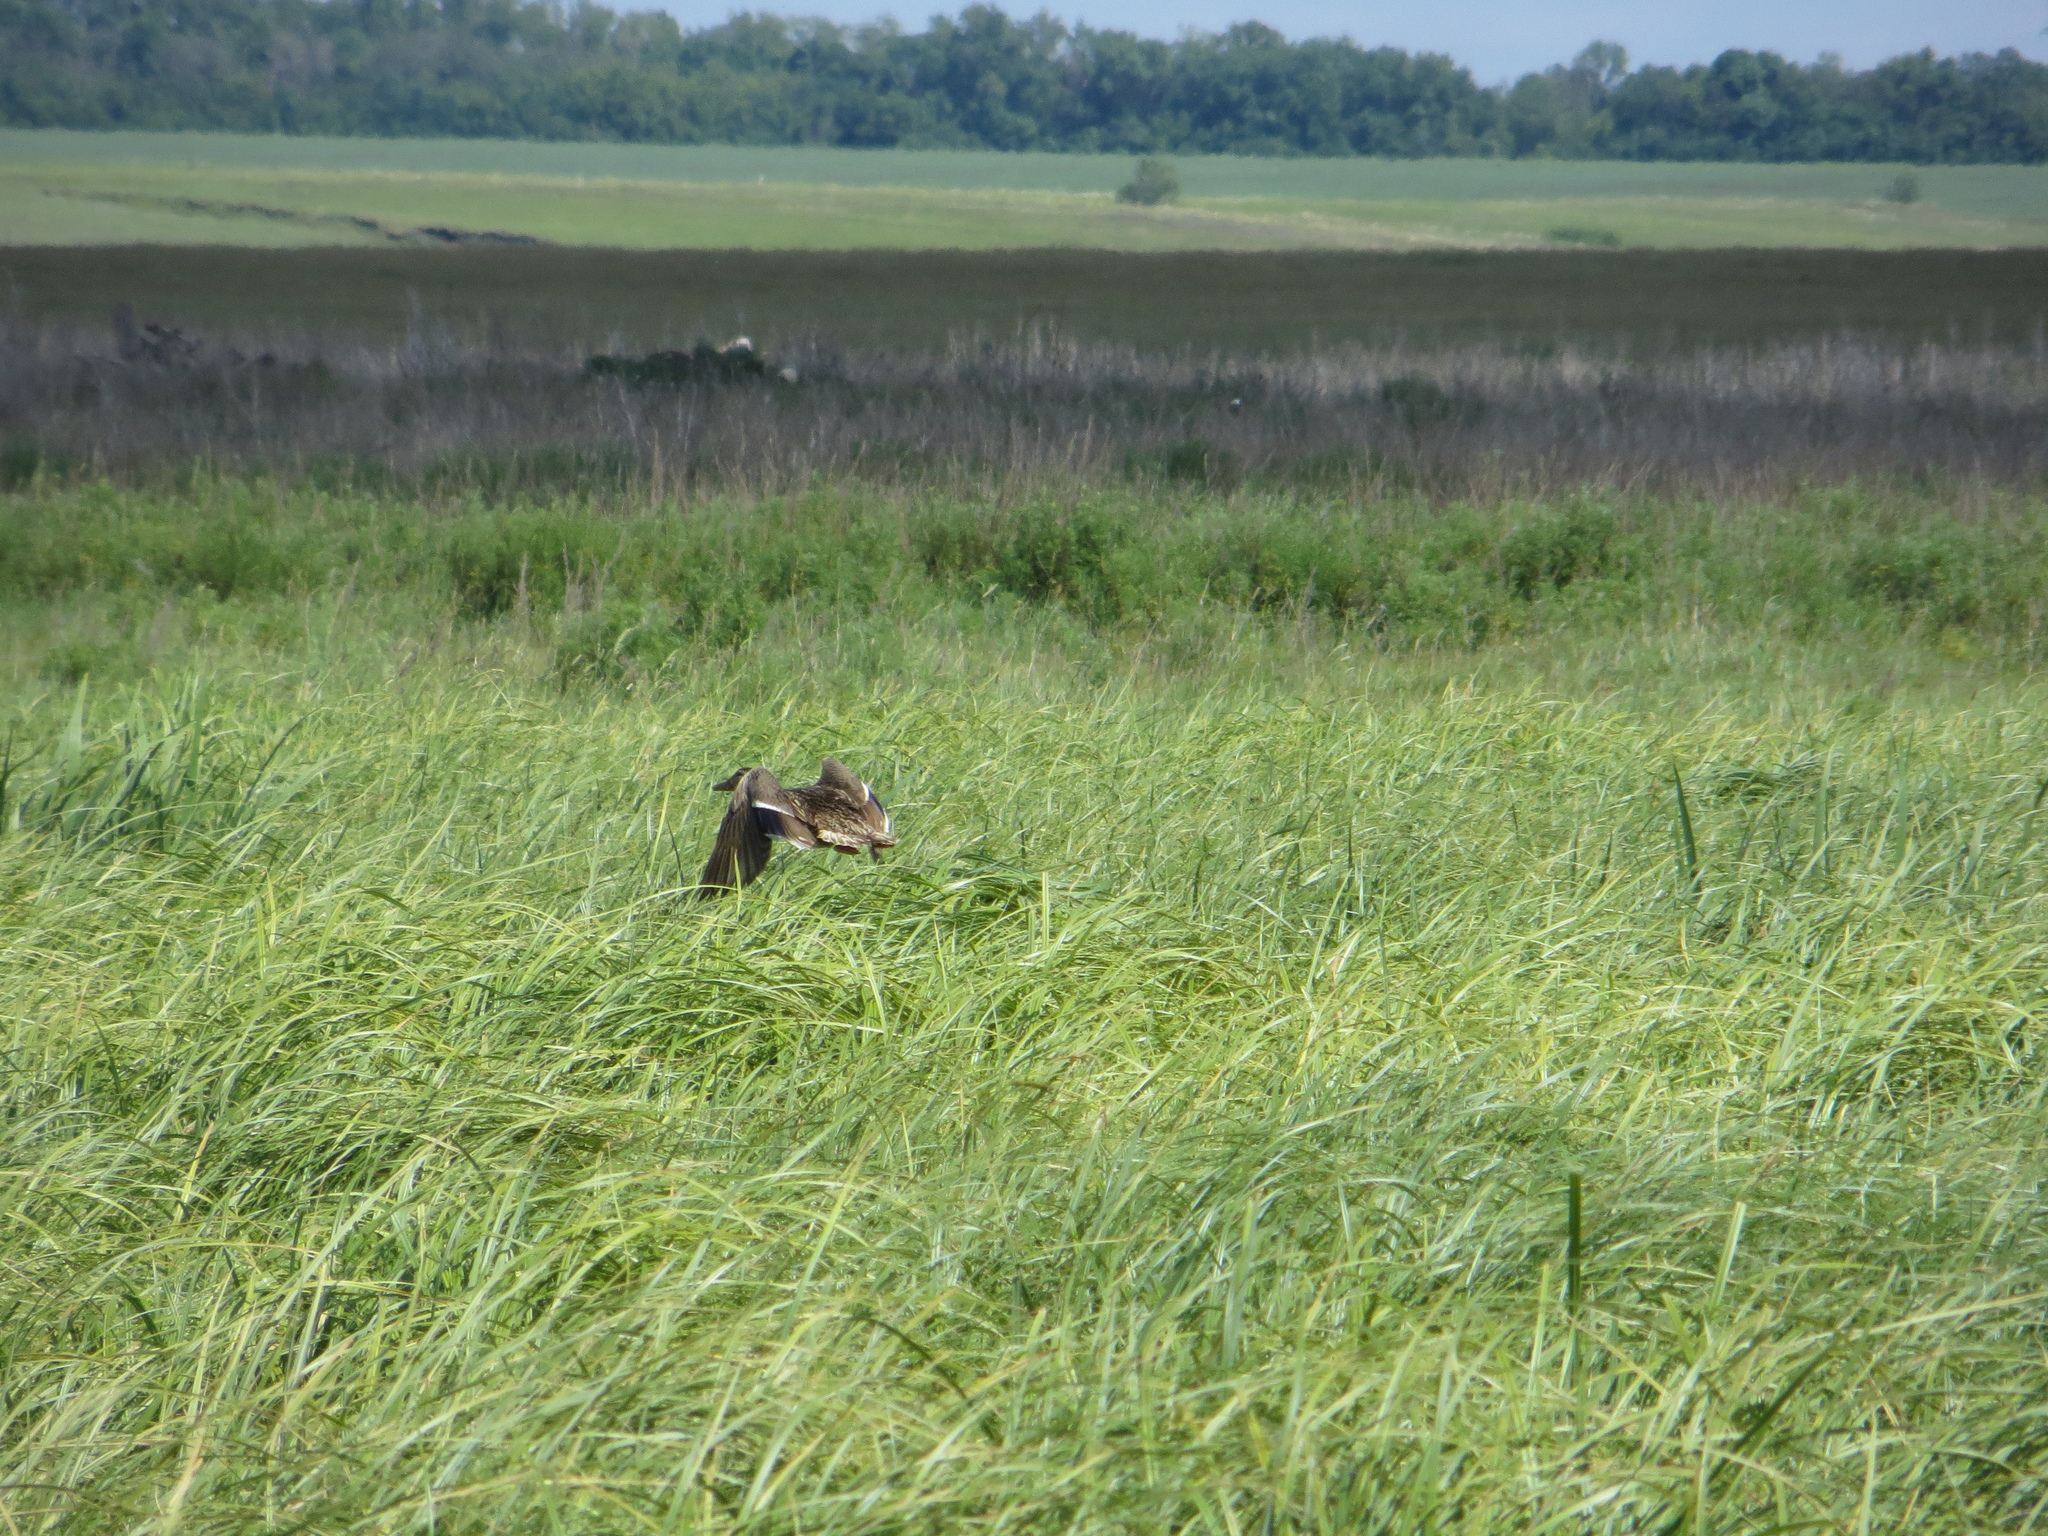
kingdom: Animalia
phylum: Chordata
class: Aves
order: Anseriformes
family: Anatidae
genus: Anas
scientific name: Anas platyrhynchos
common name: Mallard
